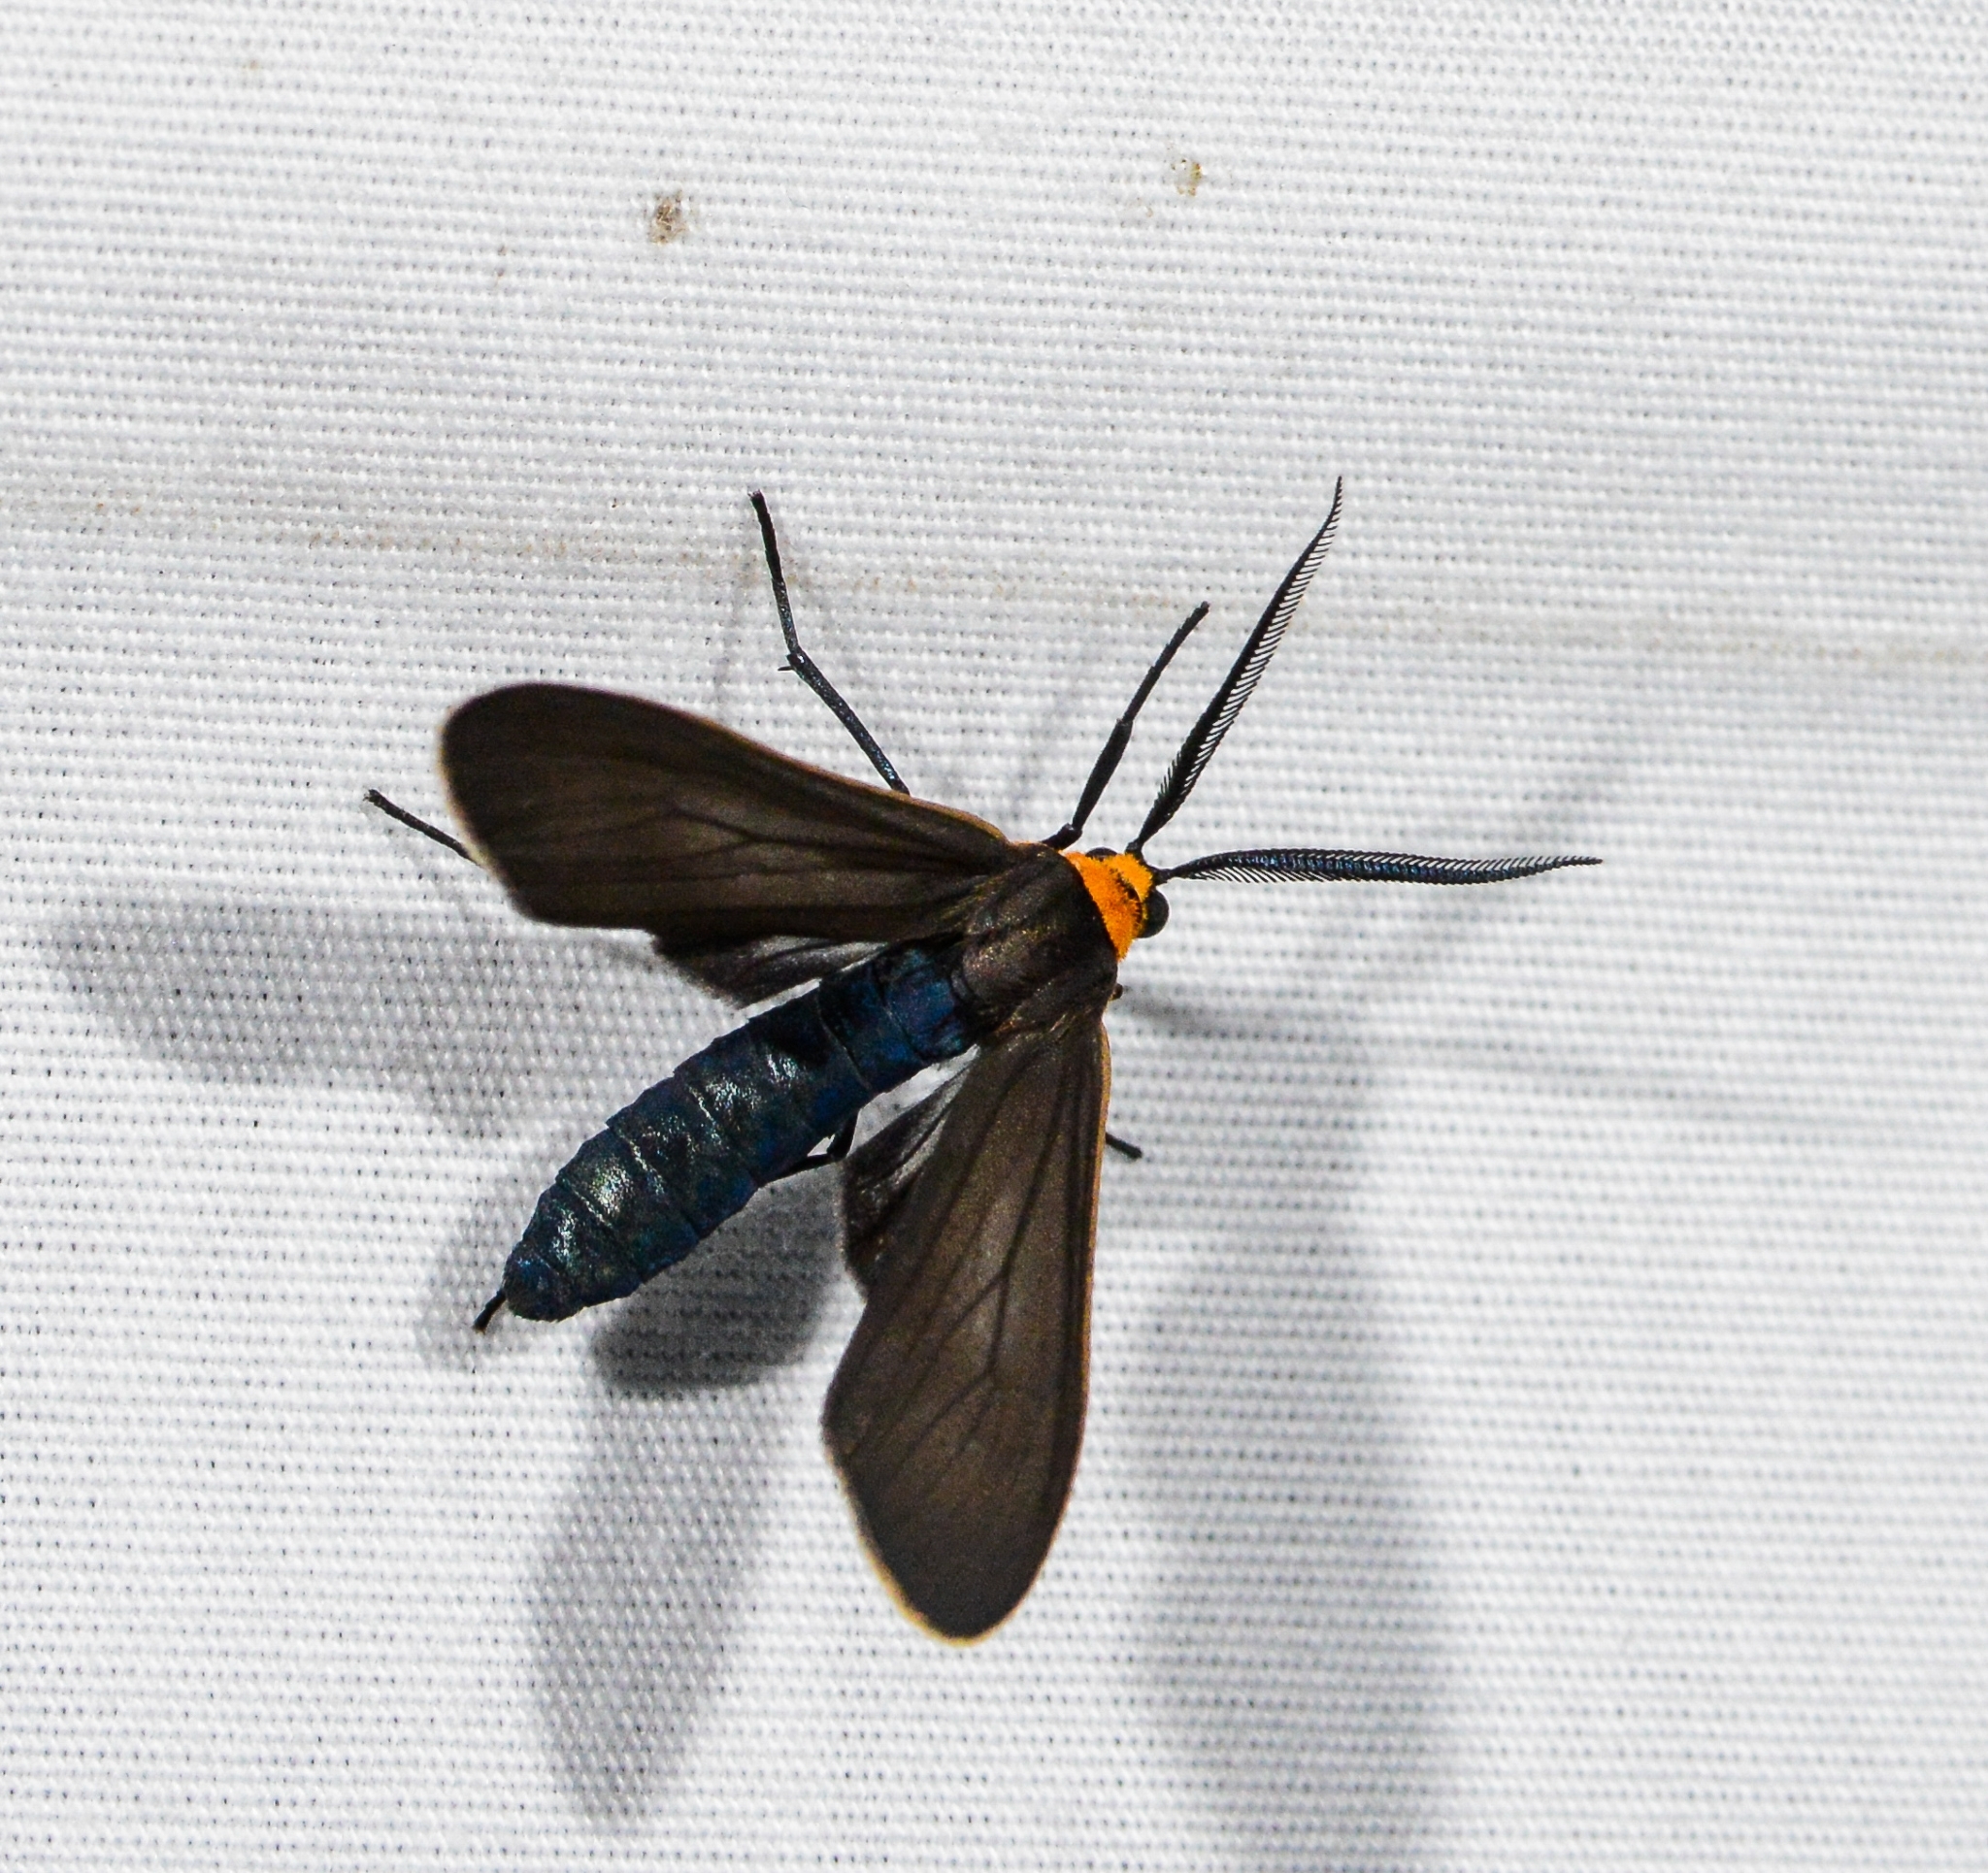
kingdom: Animalia
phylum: Arthropoda
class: Insecta
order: Lepidoptera
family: Erebidae
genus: Cisseps
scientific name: Cisseps fulvicollis
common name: Yellow-collared scape moth
